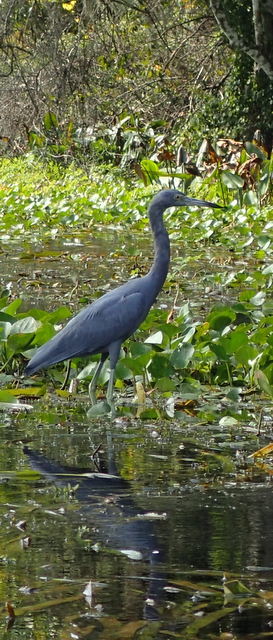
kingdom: Animalia
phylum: Chordata
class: Aves
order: Pelecaniformes
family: Ardeidae
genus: Egretta
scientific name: Egretta caerulea
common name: Little blue heron
